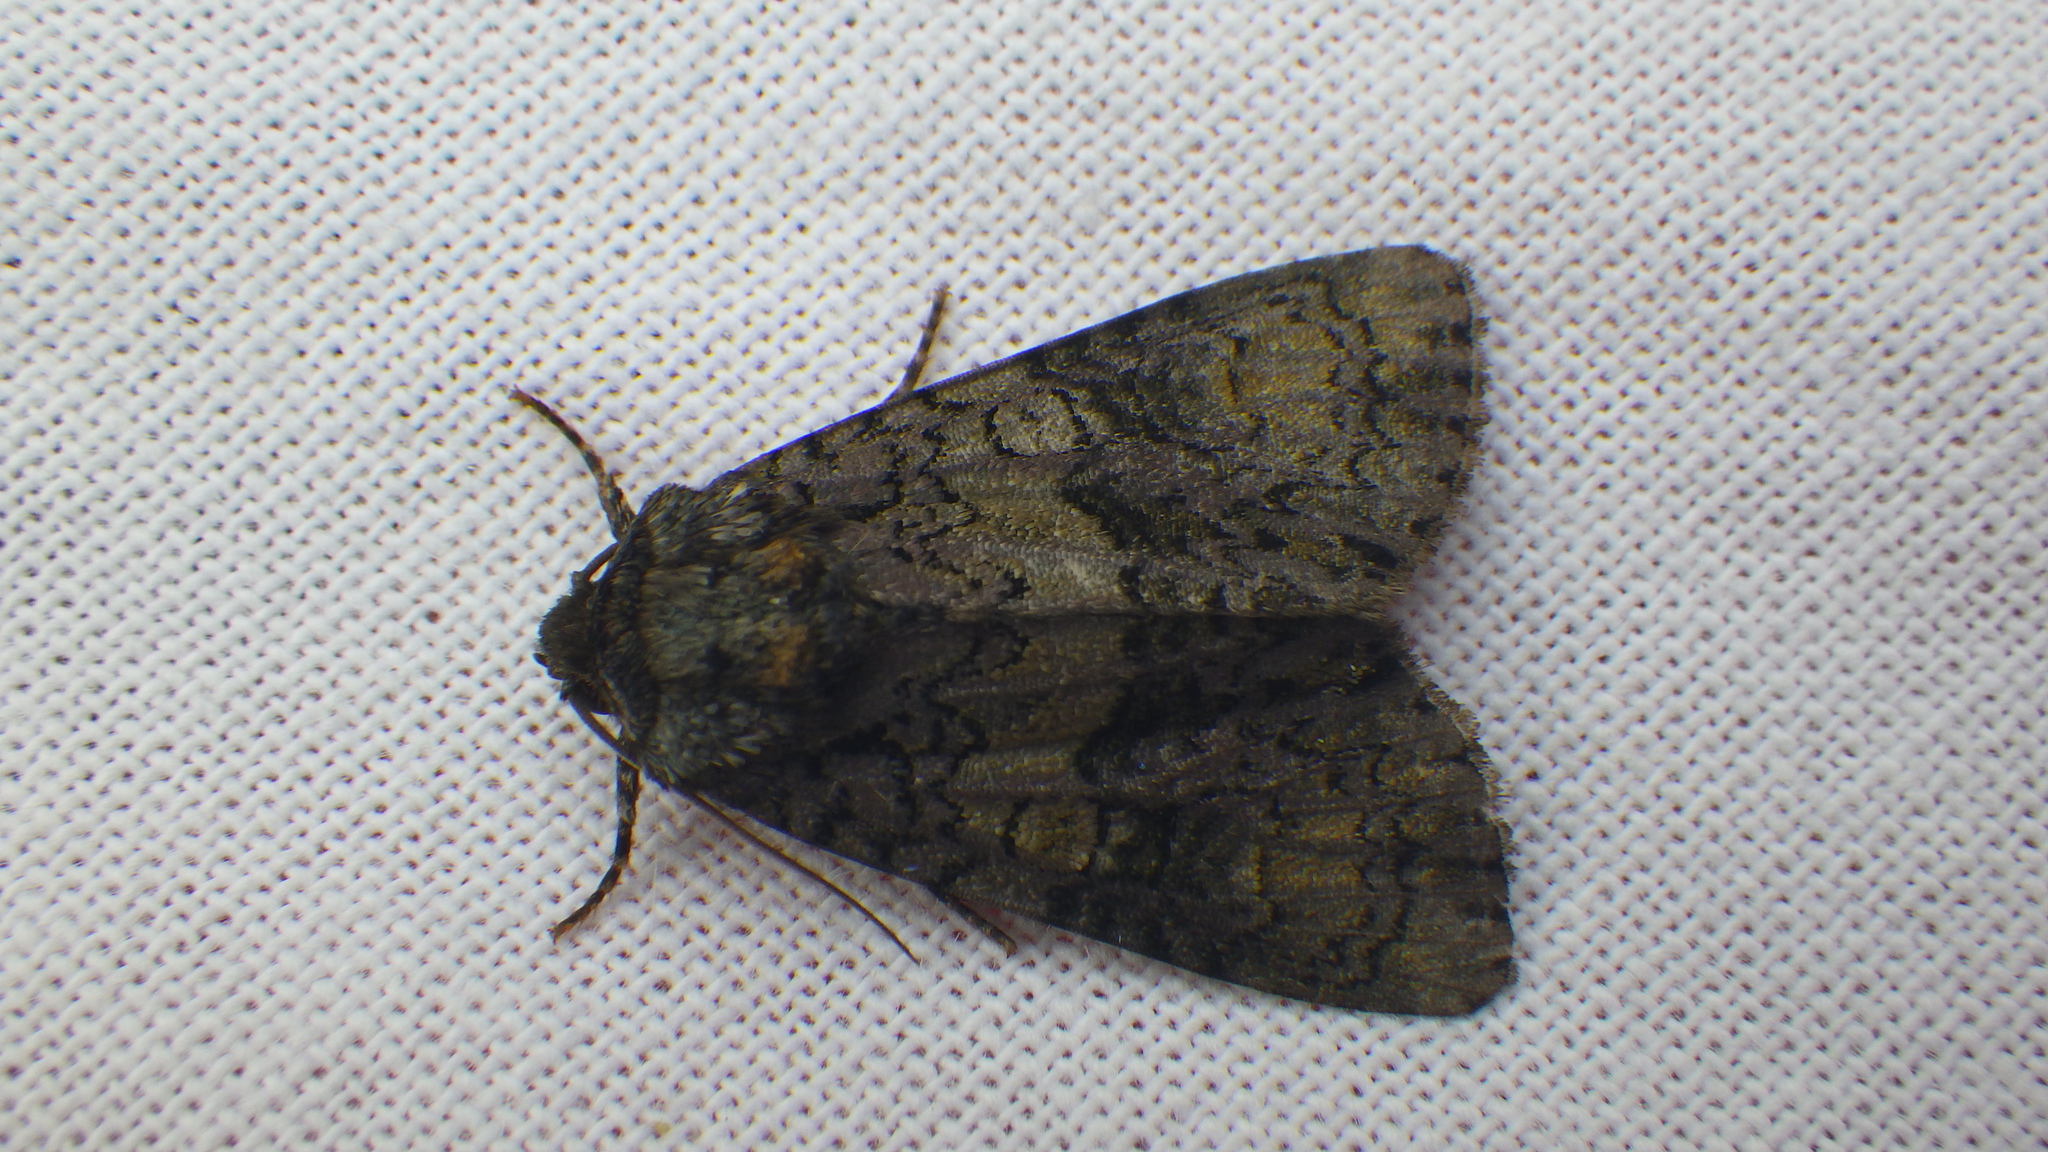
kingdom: Animalia
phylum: Arthropoda
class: Insecta
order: Lepidoptera
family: Noctuidae
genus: Craniophora
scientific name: Craniophora ligustri
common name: Coronet
